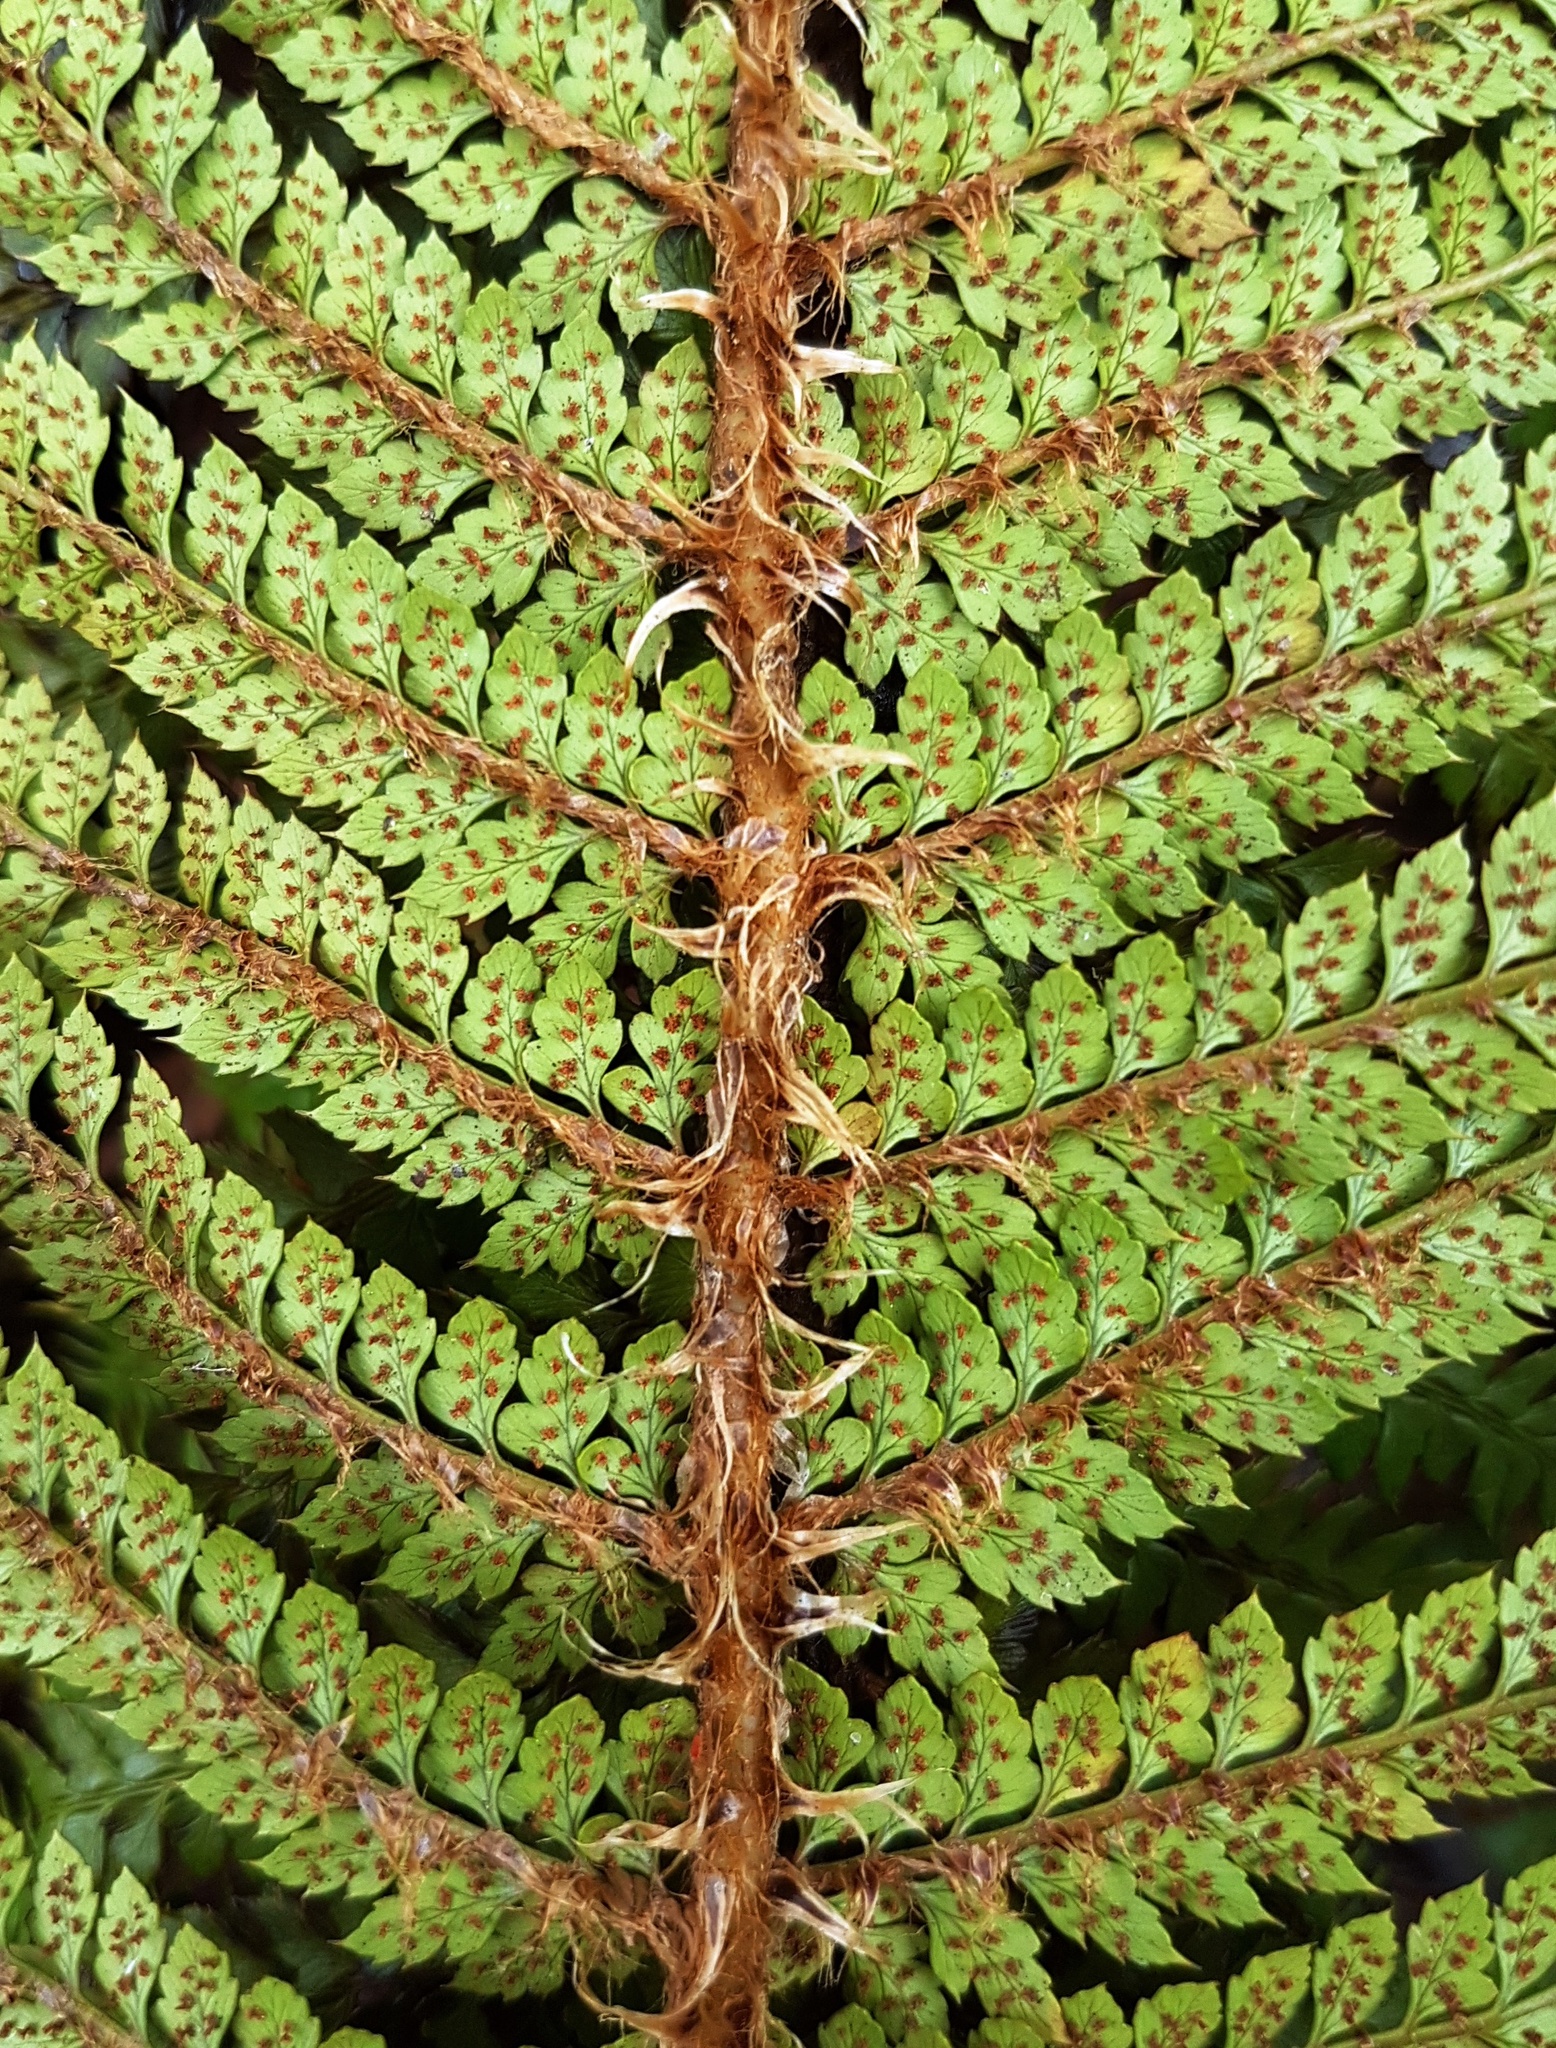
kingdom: Plantae
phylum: Tracheophyta
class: Polypodiopsida
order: Polypodiales
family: Dryopteridaceae
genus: Polystichum
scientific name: Polystichum vestitum
